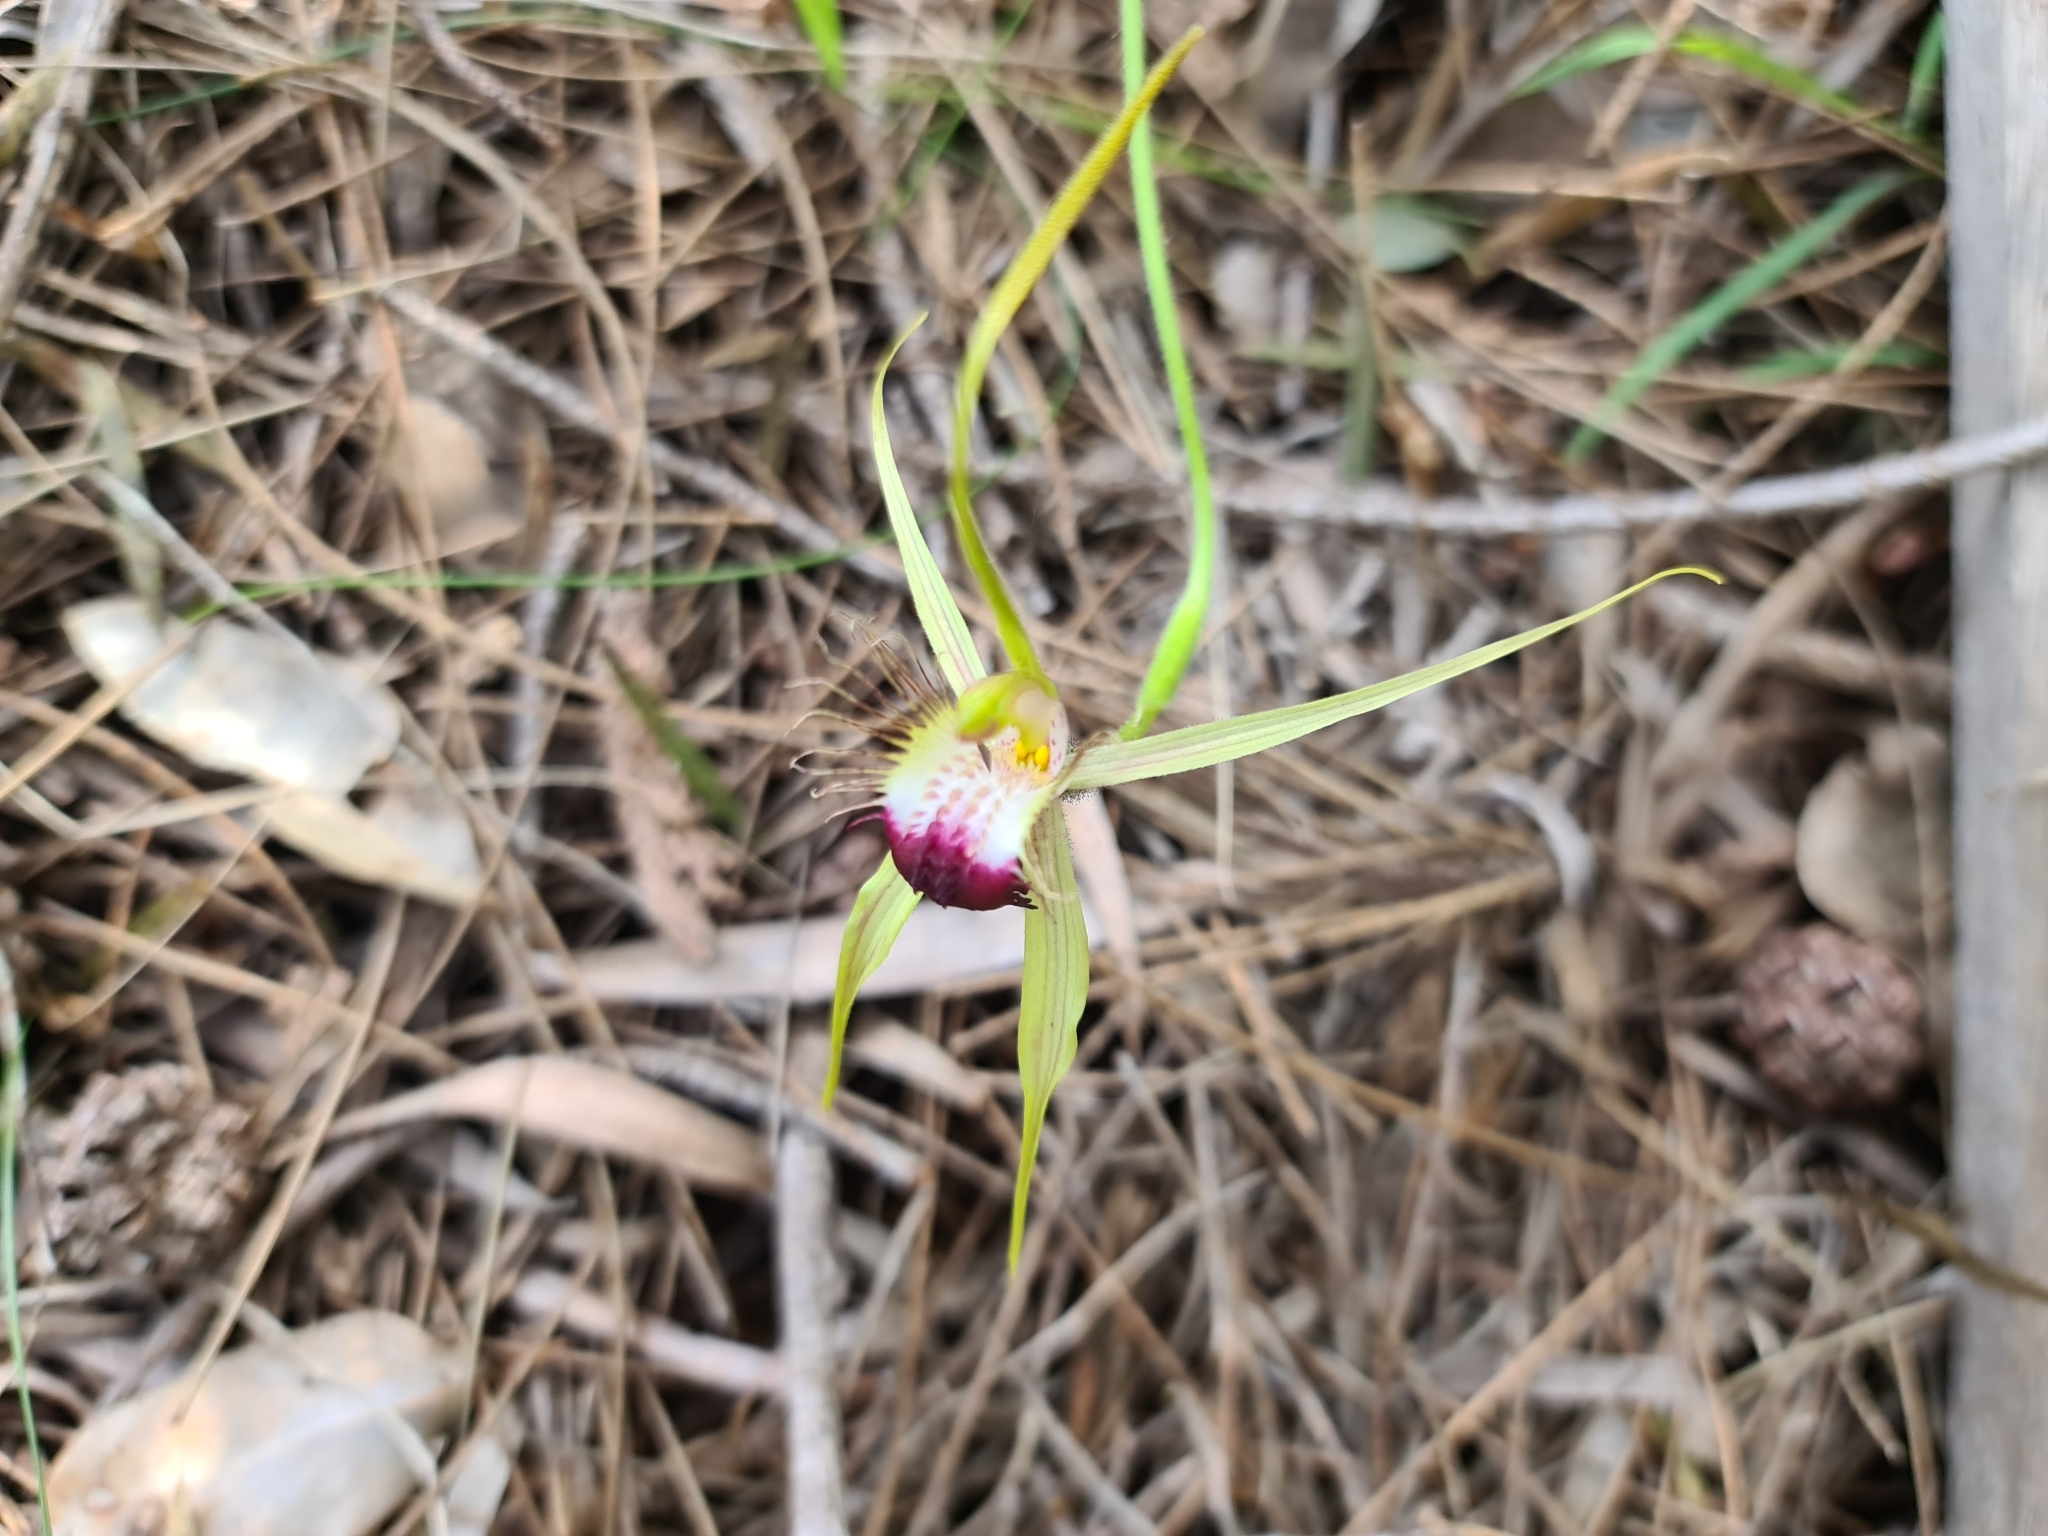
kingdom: Plantae
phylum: Tracheophyta
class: Liliopsida
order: Asparagales
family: Orchidaceae
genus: Caladenia
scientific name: Caladenia thinicola
